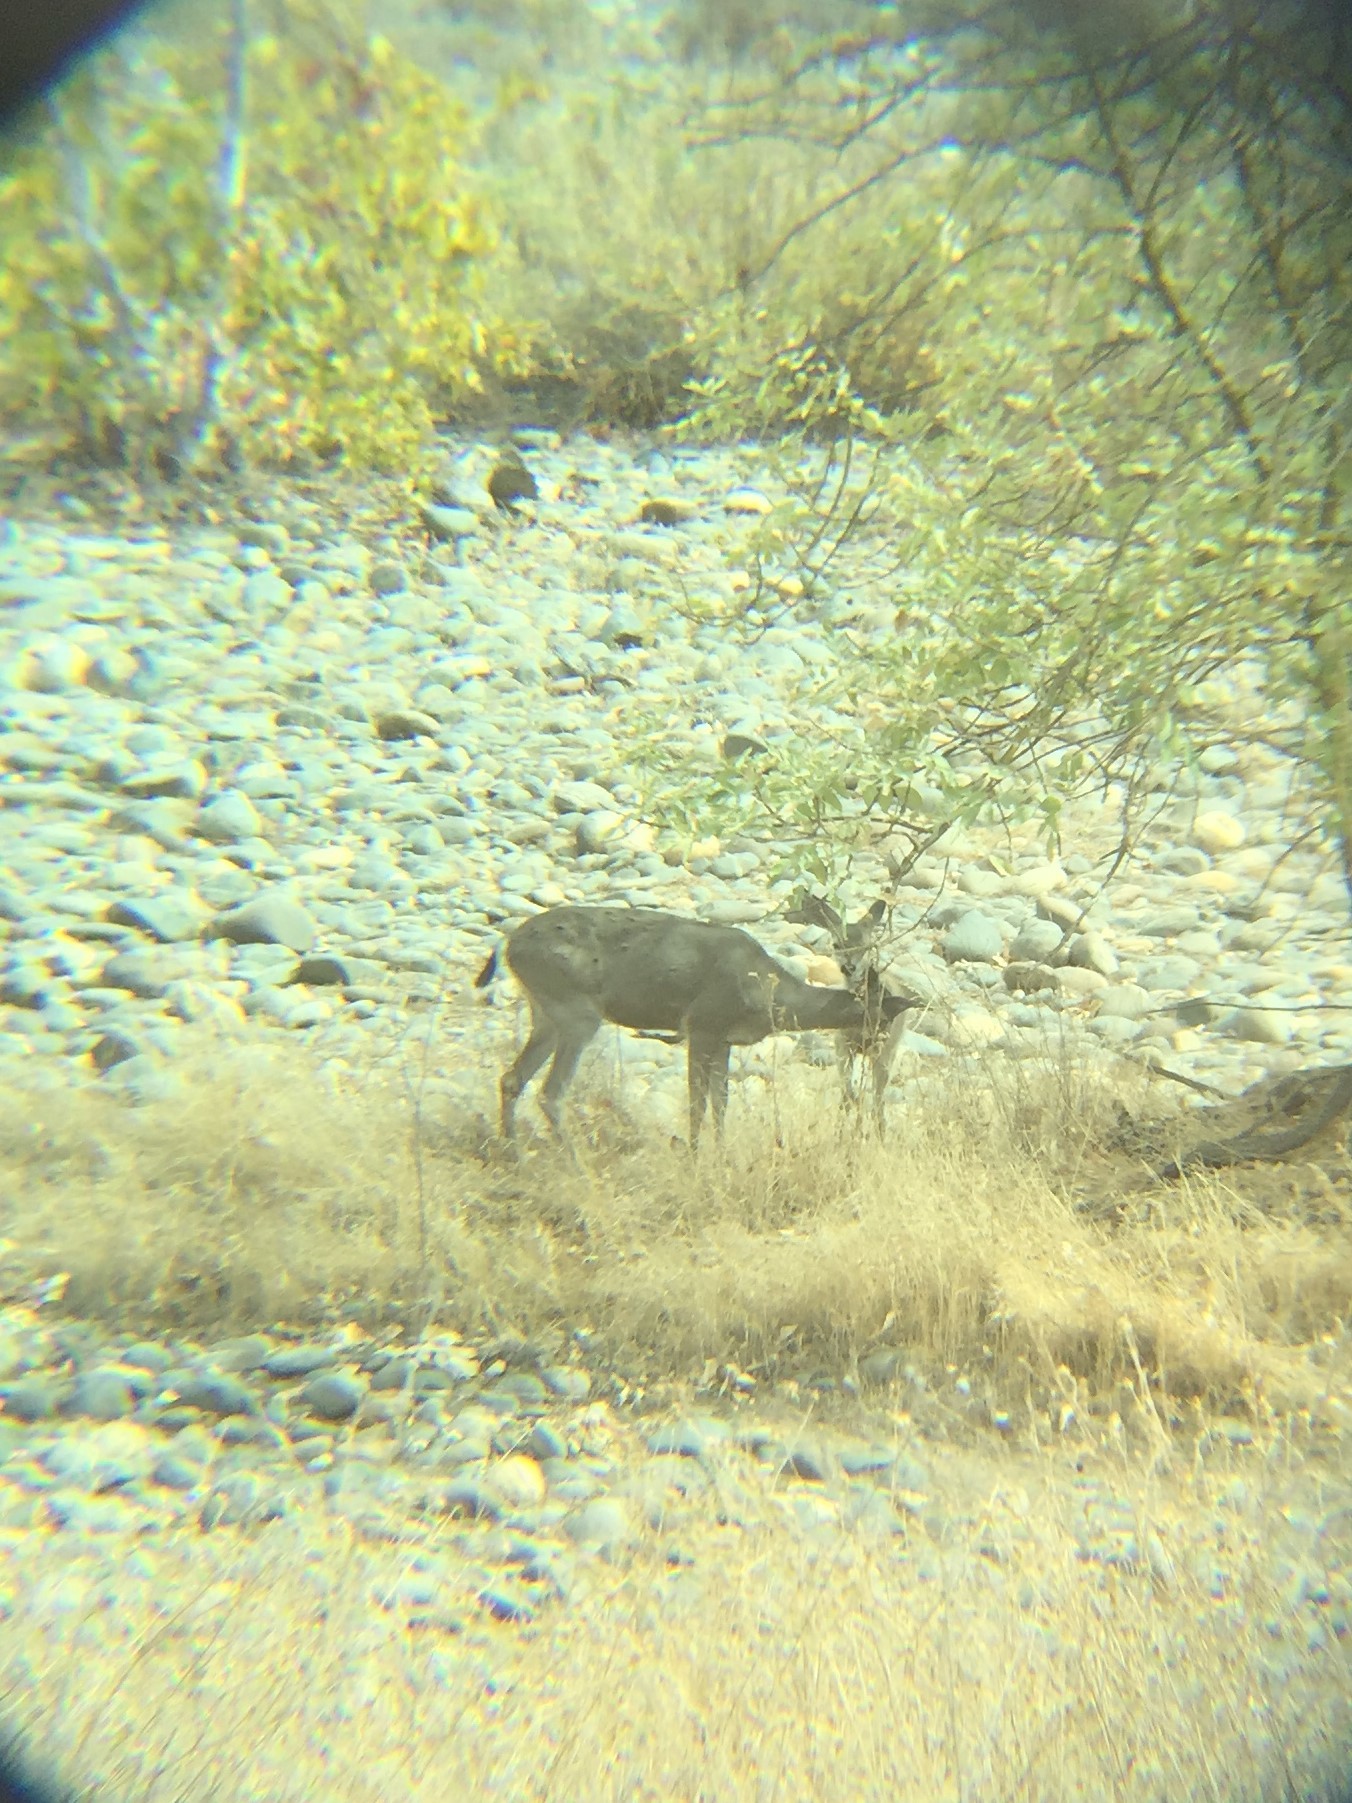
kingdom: Animalia
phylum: Chordata
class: Mammalia
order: Artiodactyla
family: Cervidae
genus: Odocoileus
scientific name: Odocoileus hemionus
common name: Mule deer
